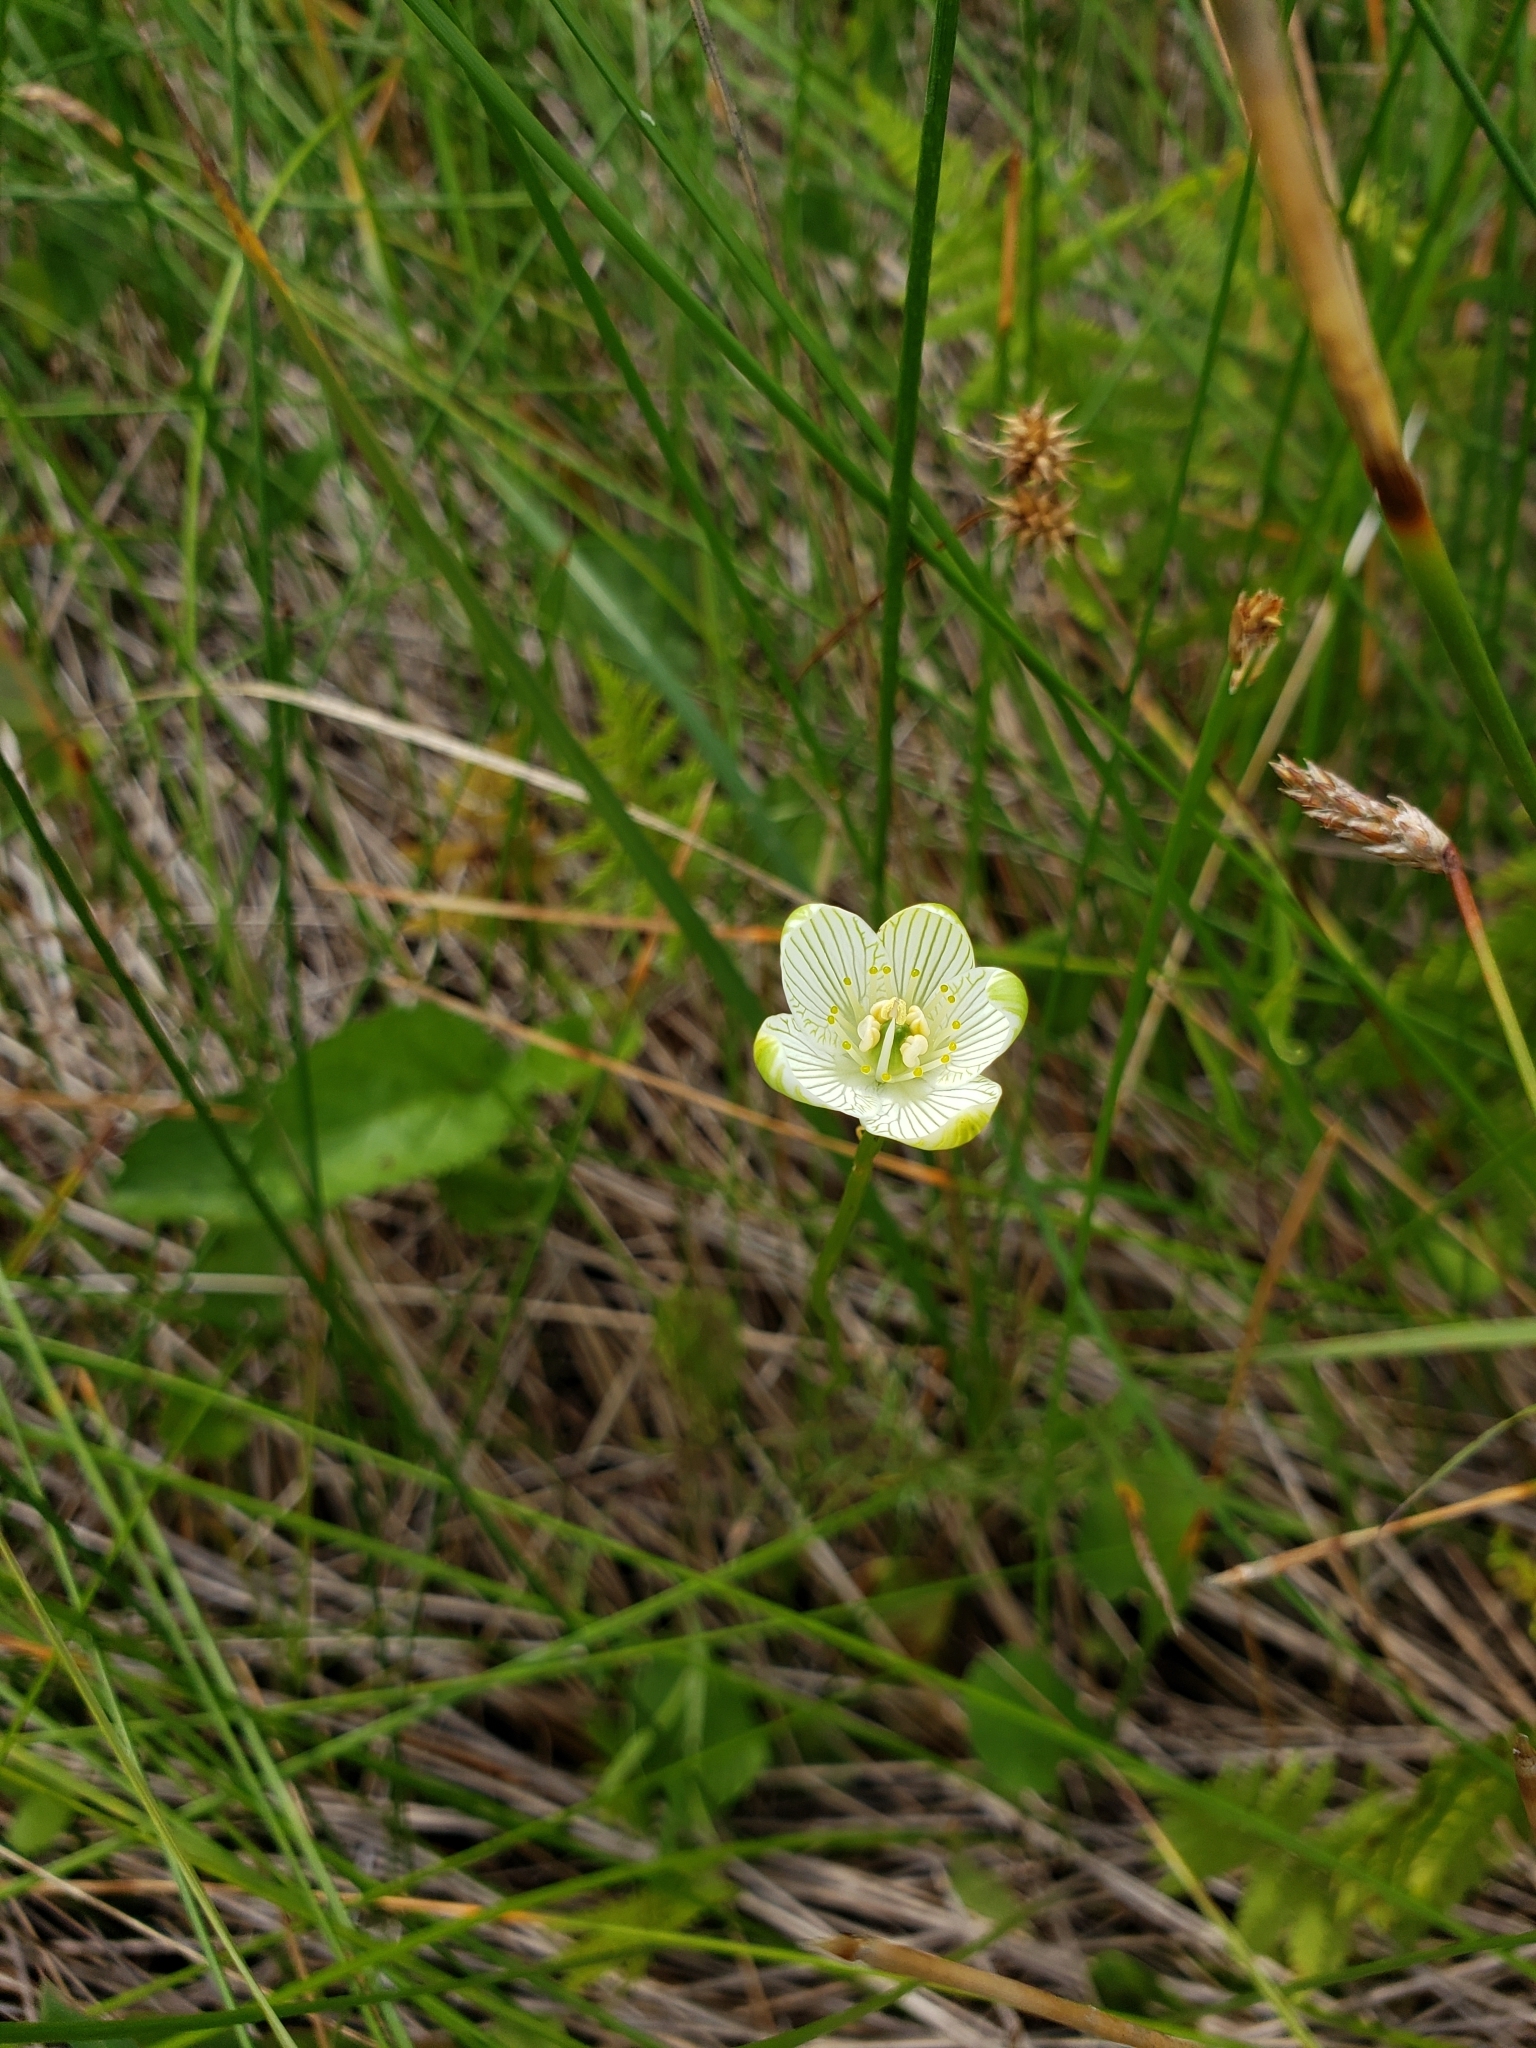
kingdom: Plantae
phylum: Tracheophyta
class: Magnoliopsida
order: Celastrales
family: Parnassiaceae
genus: Parnassia
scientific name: Parnassia glauca
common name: American grass-of-parnassus
